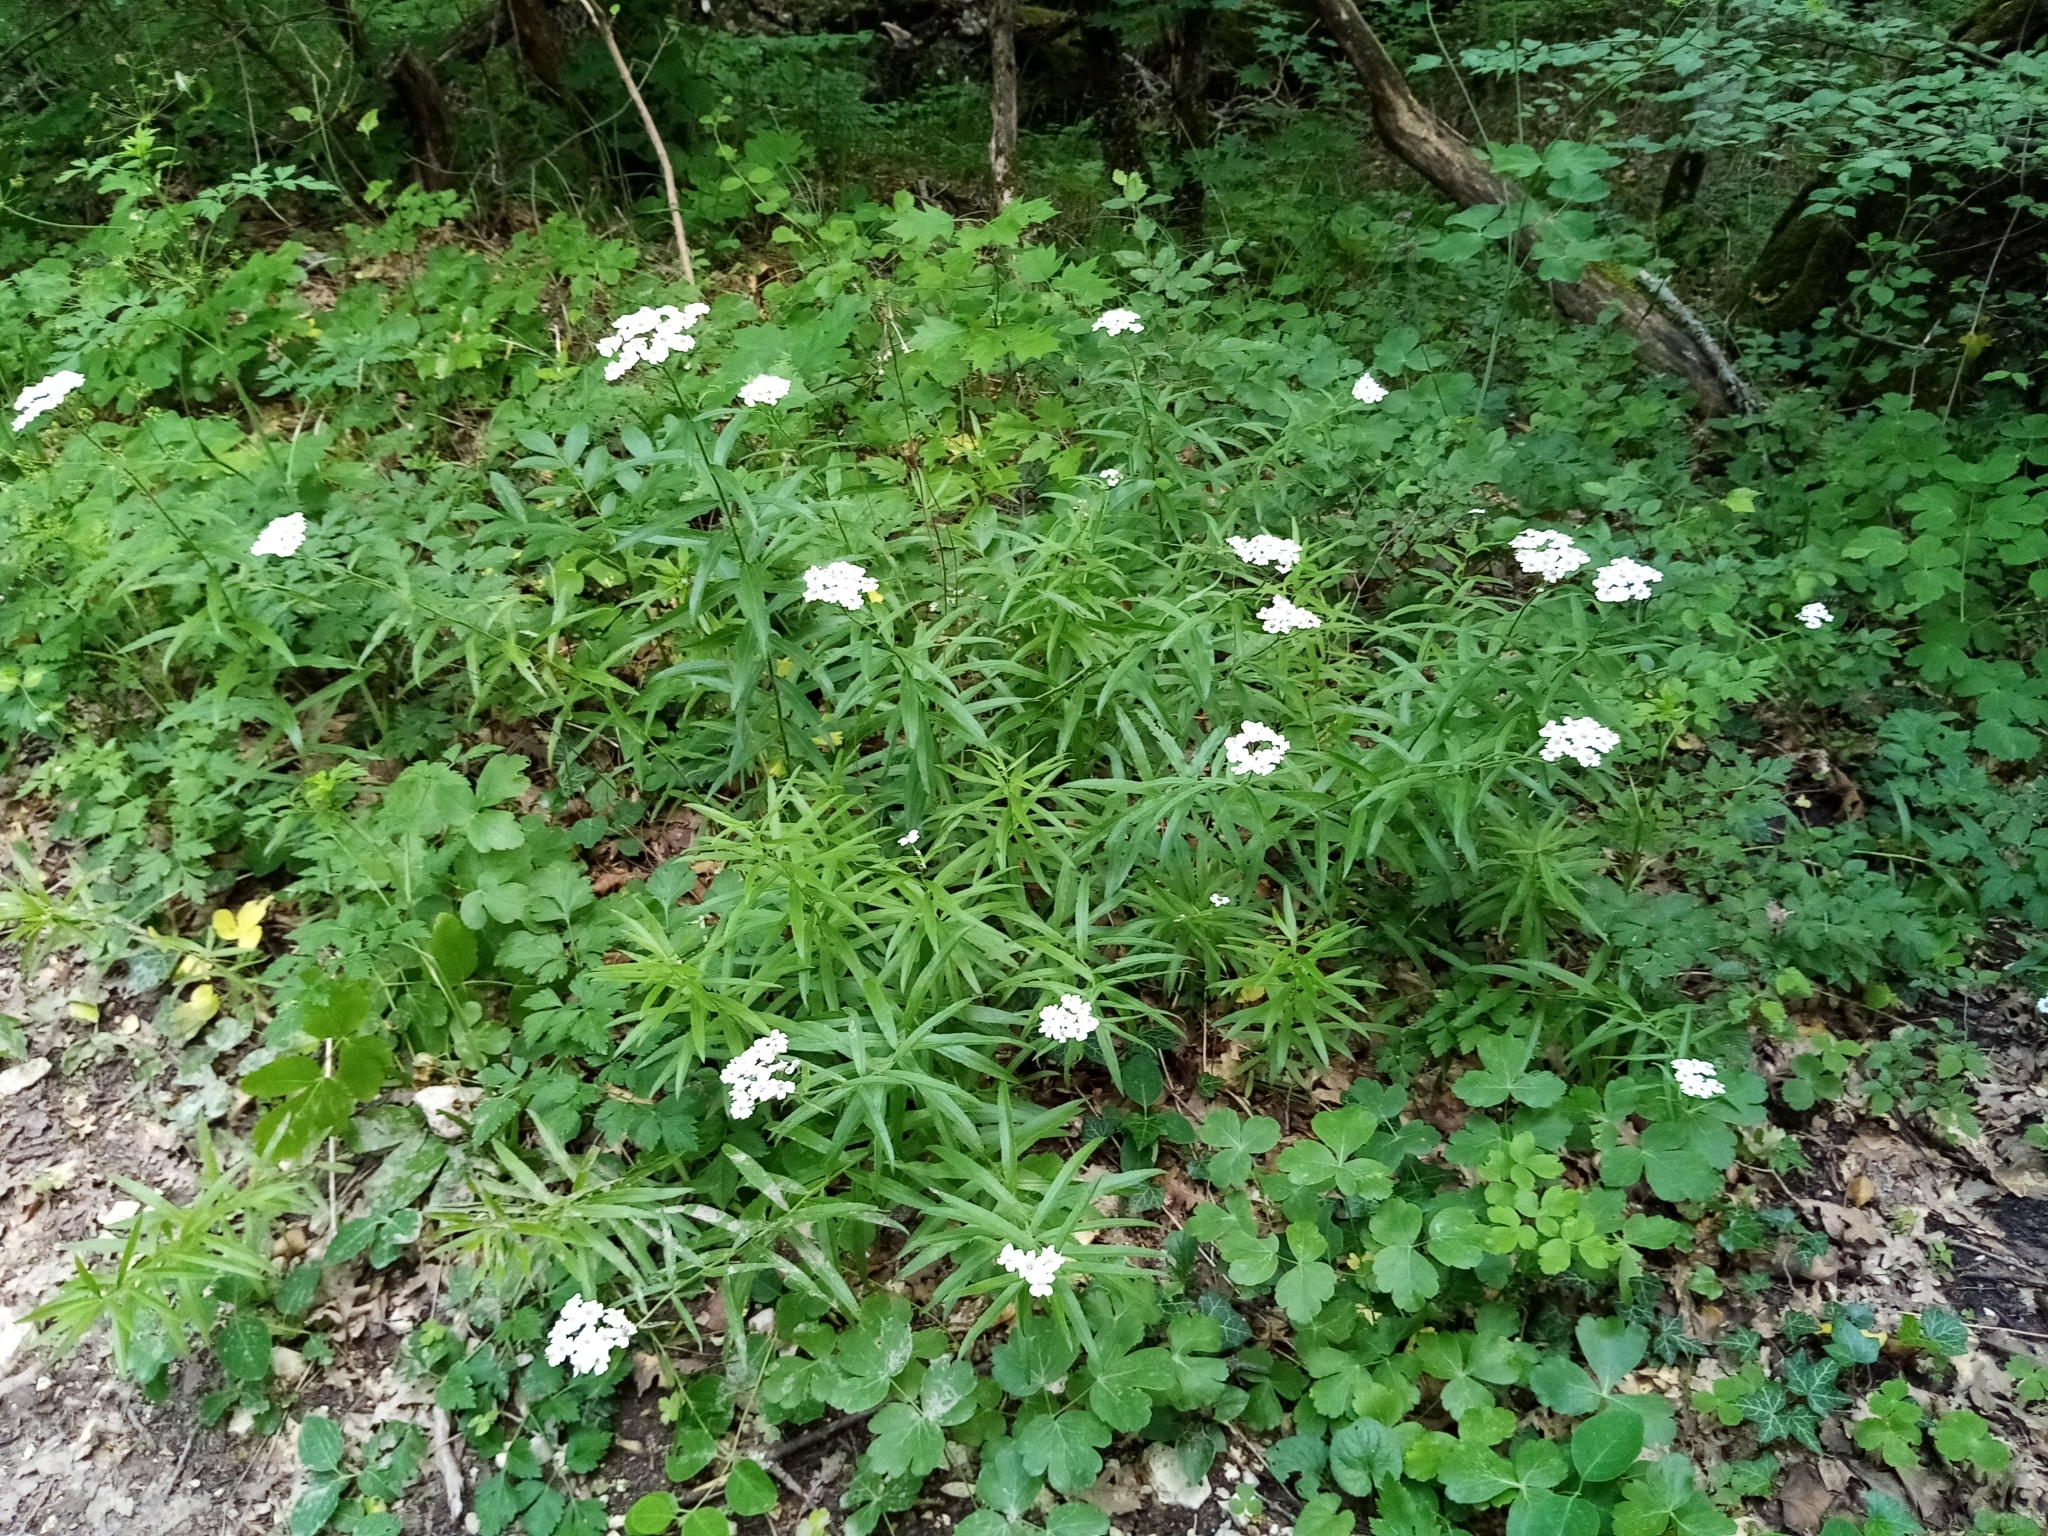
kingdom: Plantae
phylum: Tracheophyta
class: Magnoliopsida
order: Asterales
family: Asteraceae
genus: Achillea
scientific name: Achillea biserrata
